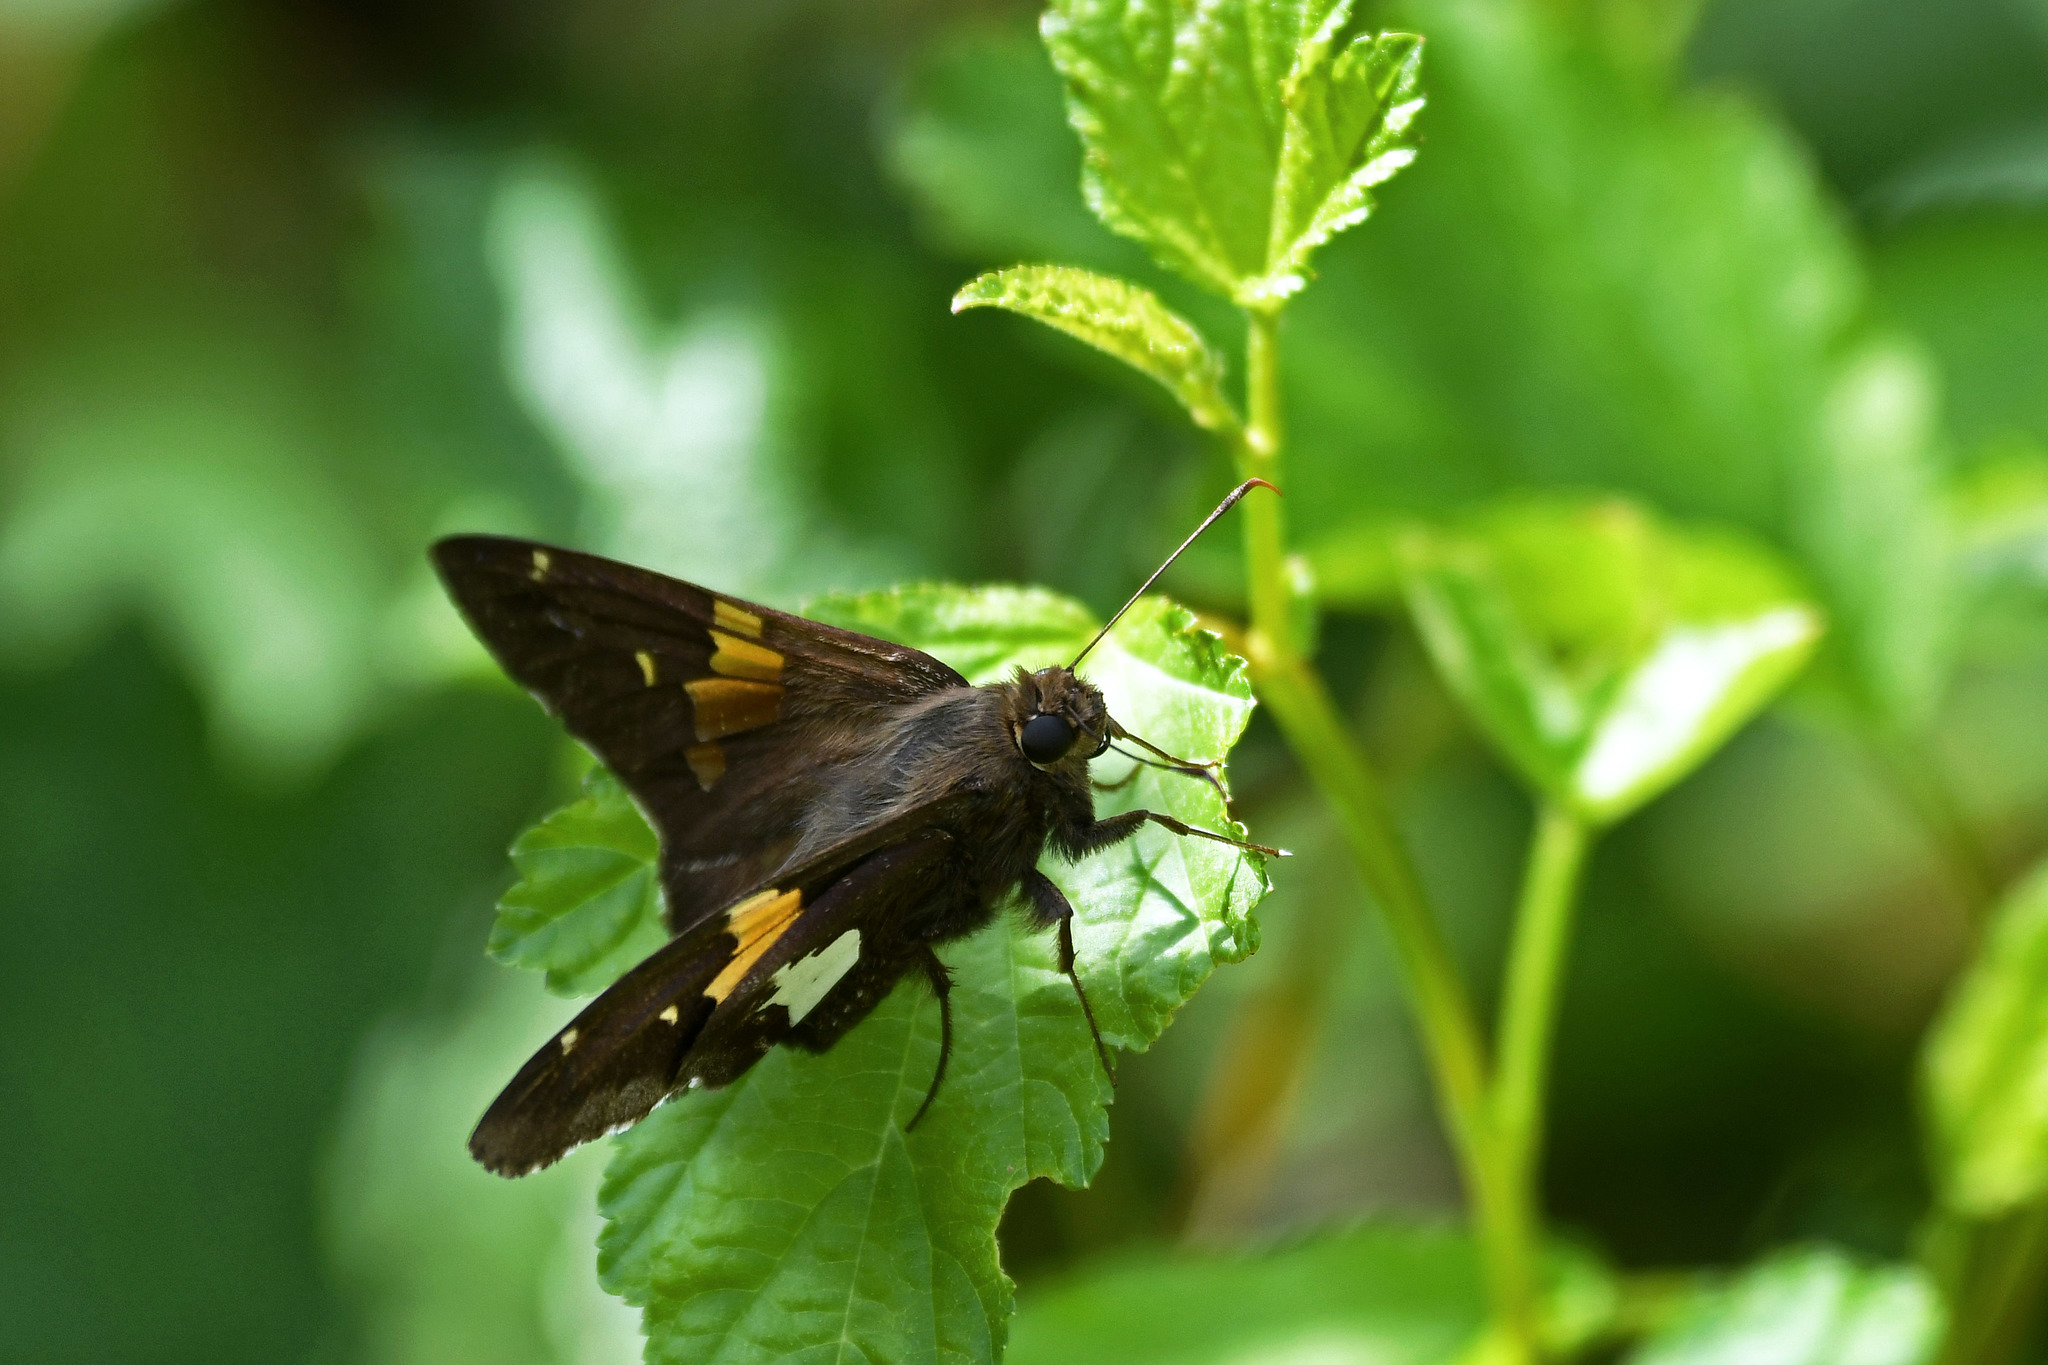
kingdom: Animalia
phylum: Arthropoda
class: Insecta
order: Lepidoptera
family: Hesperiidae
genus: Epargyreus
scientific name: Epargyreus clarus
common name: Silver-spotted skipper
